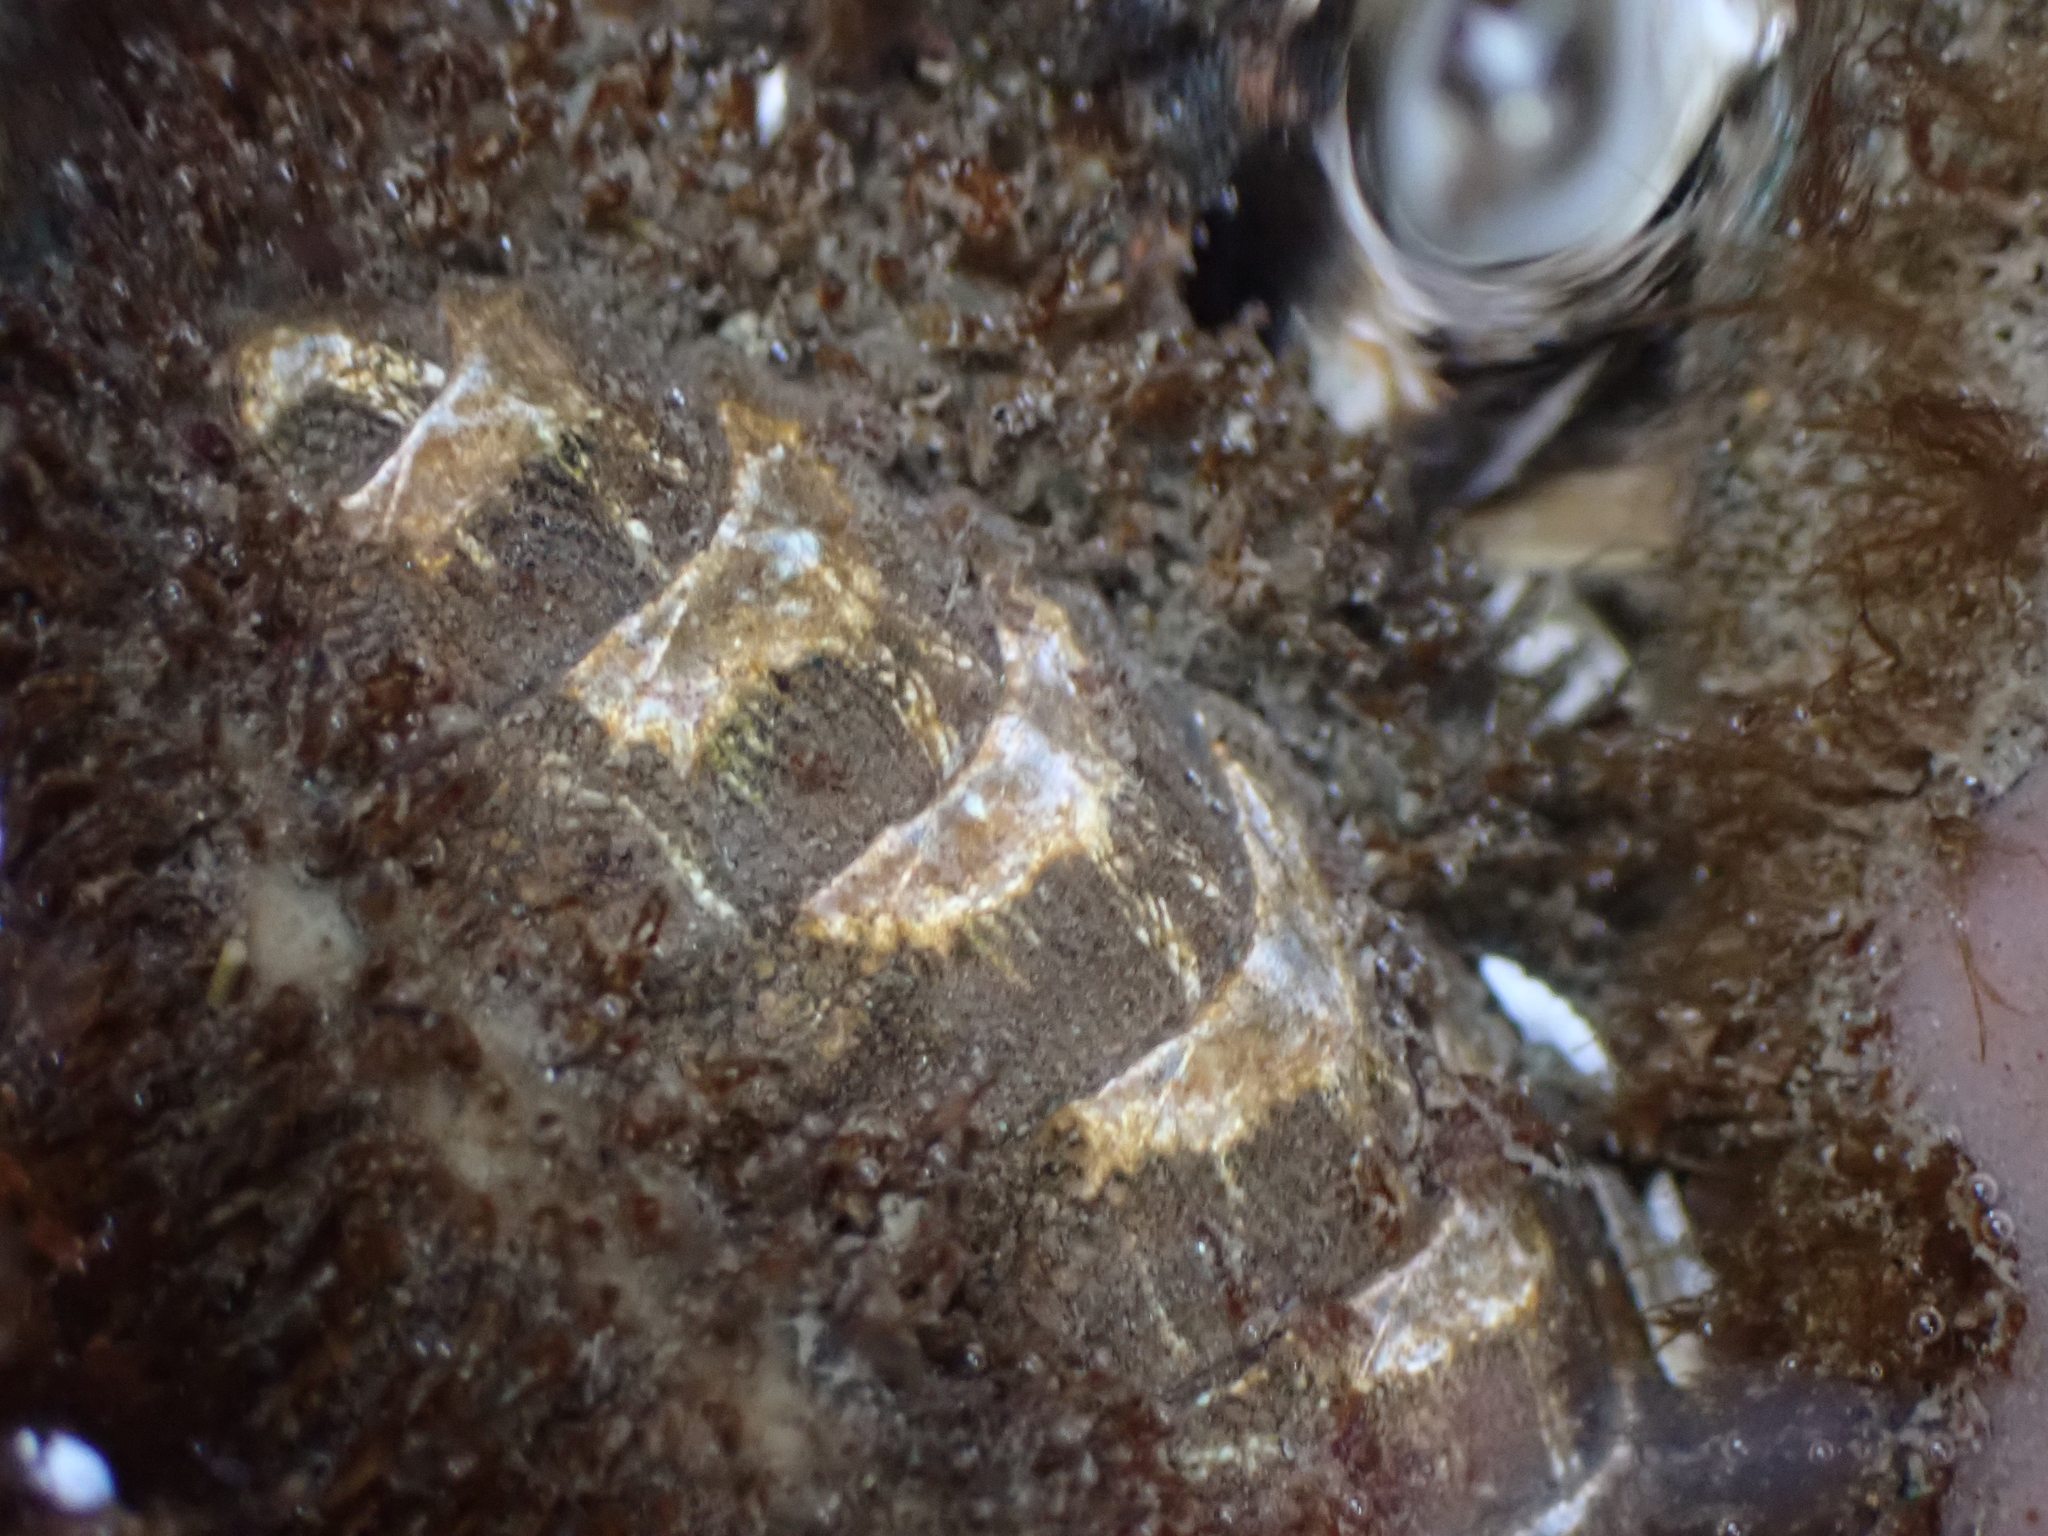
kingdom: Animalia
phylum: Mollusca
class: Polyplacophora
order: Chitonida
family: Mopaliidae
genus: Mopalia
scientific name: Mopalia muscosa
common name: Mossy chiton
